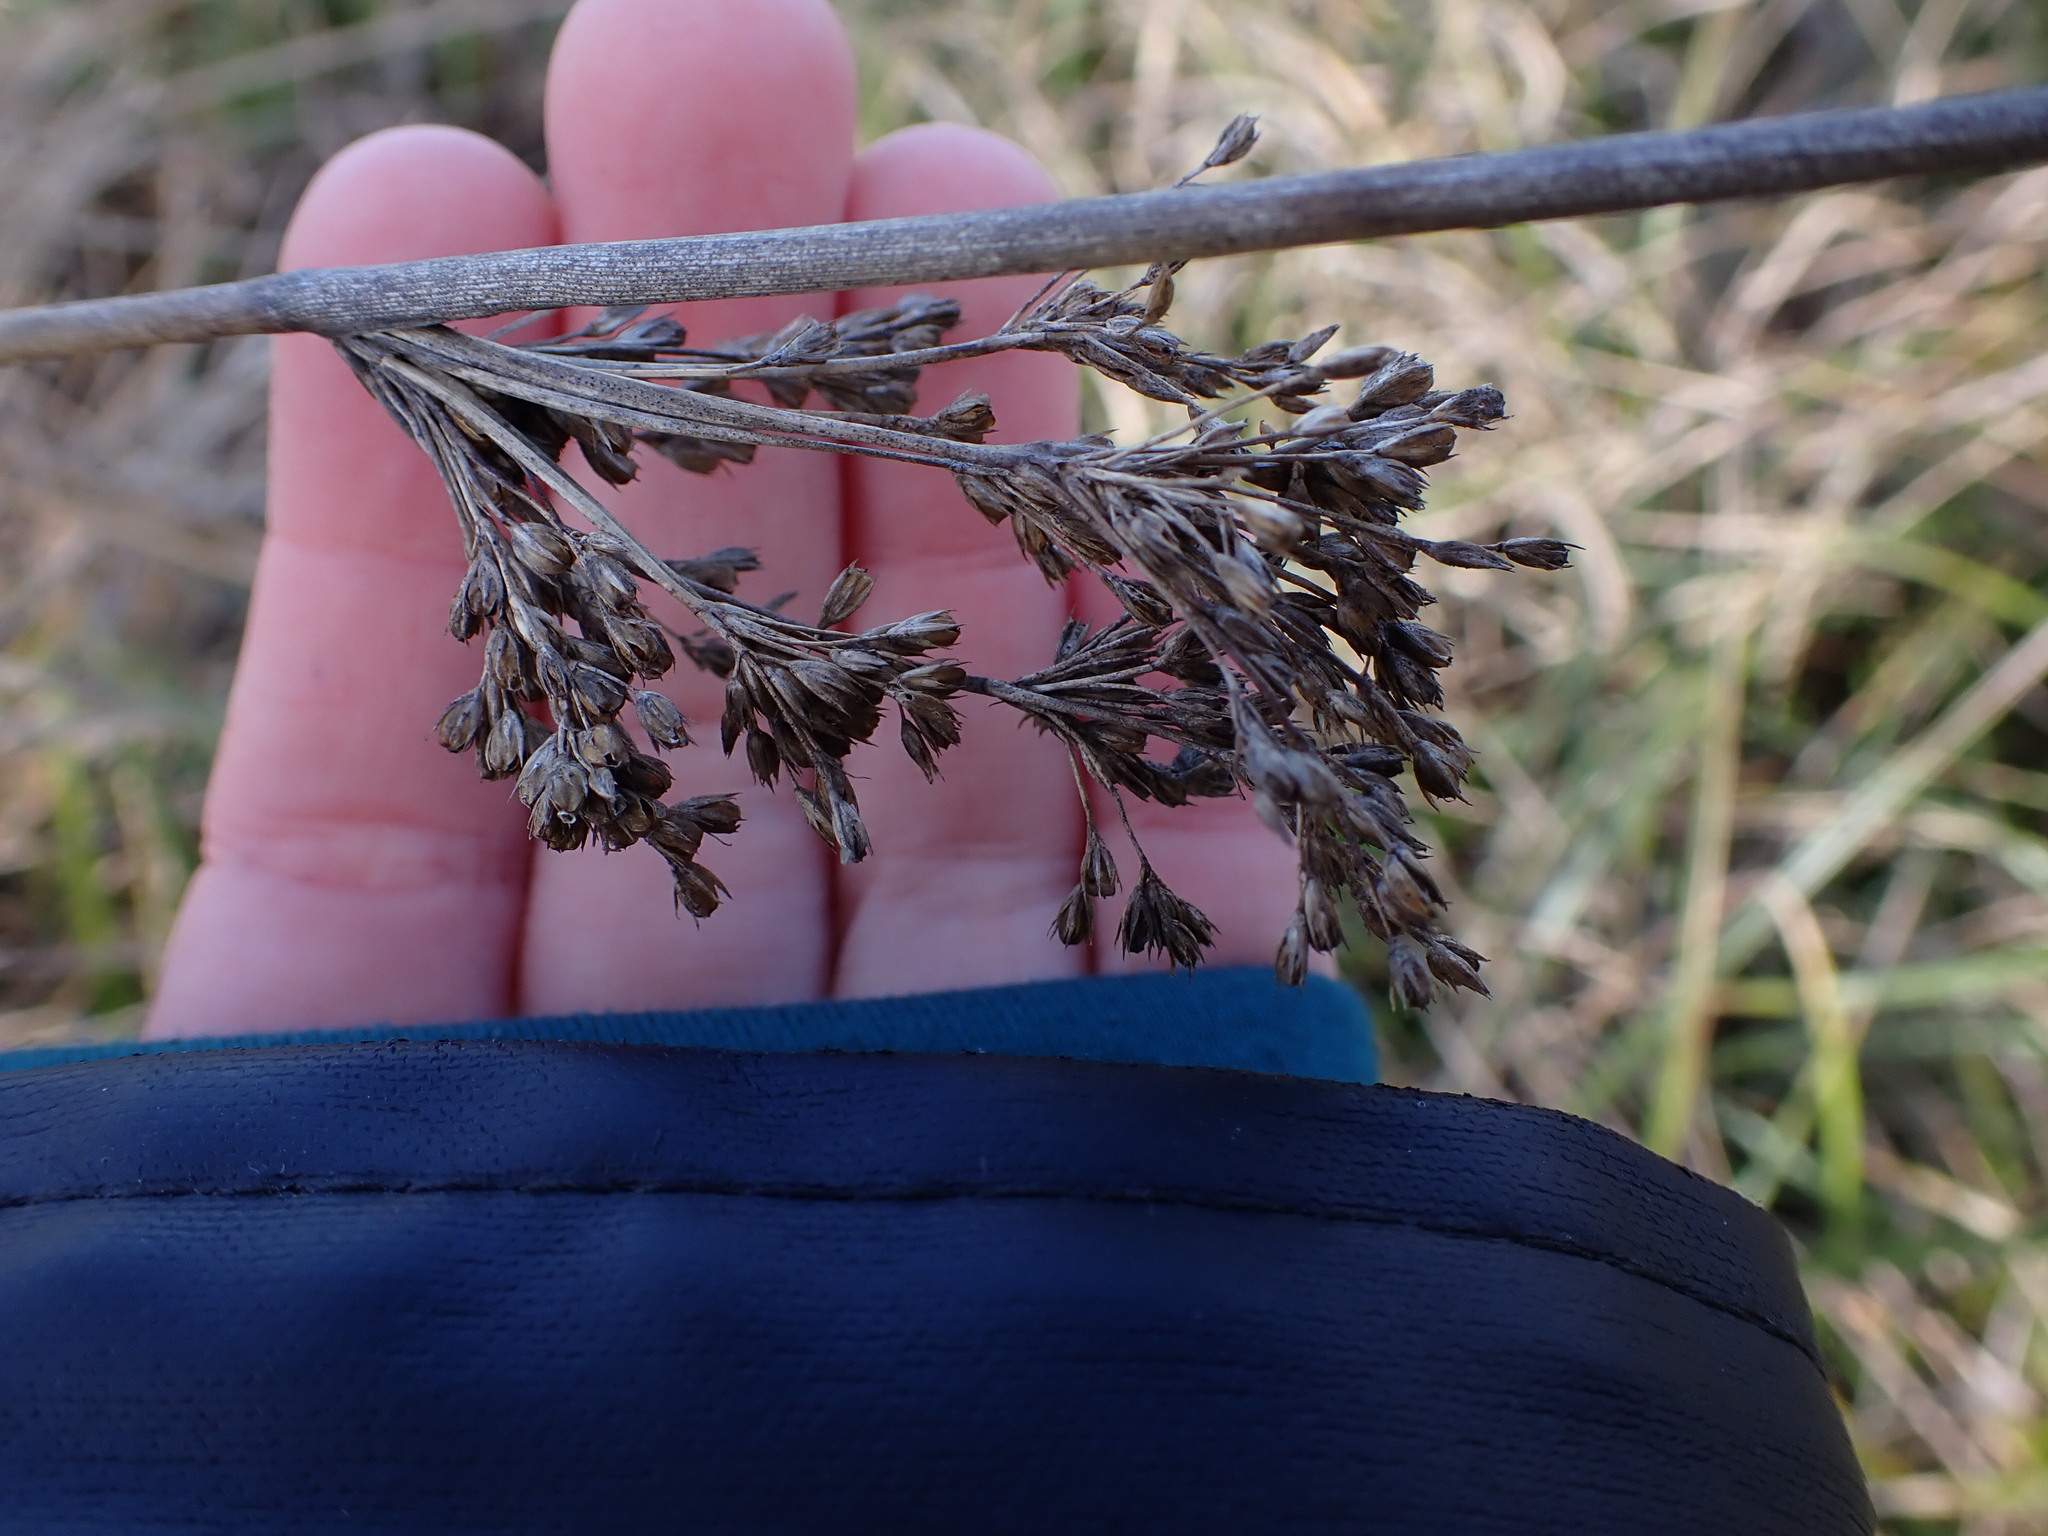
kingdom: Plantae
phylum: Tracheophyta
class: Liliopsida
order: Poales
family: Juncaceae
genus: Juncus
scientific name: Juncus effusus
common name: Soft rush
